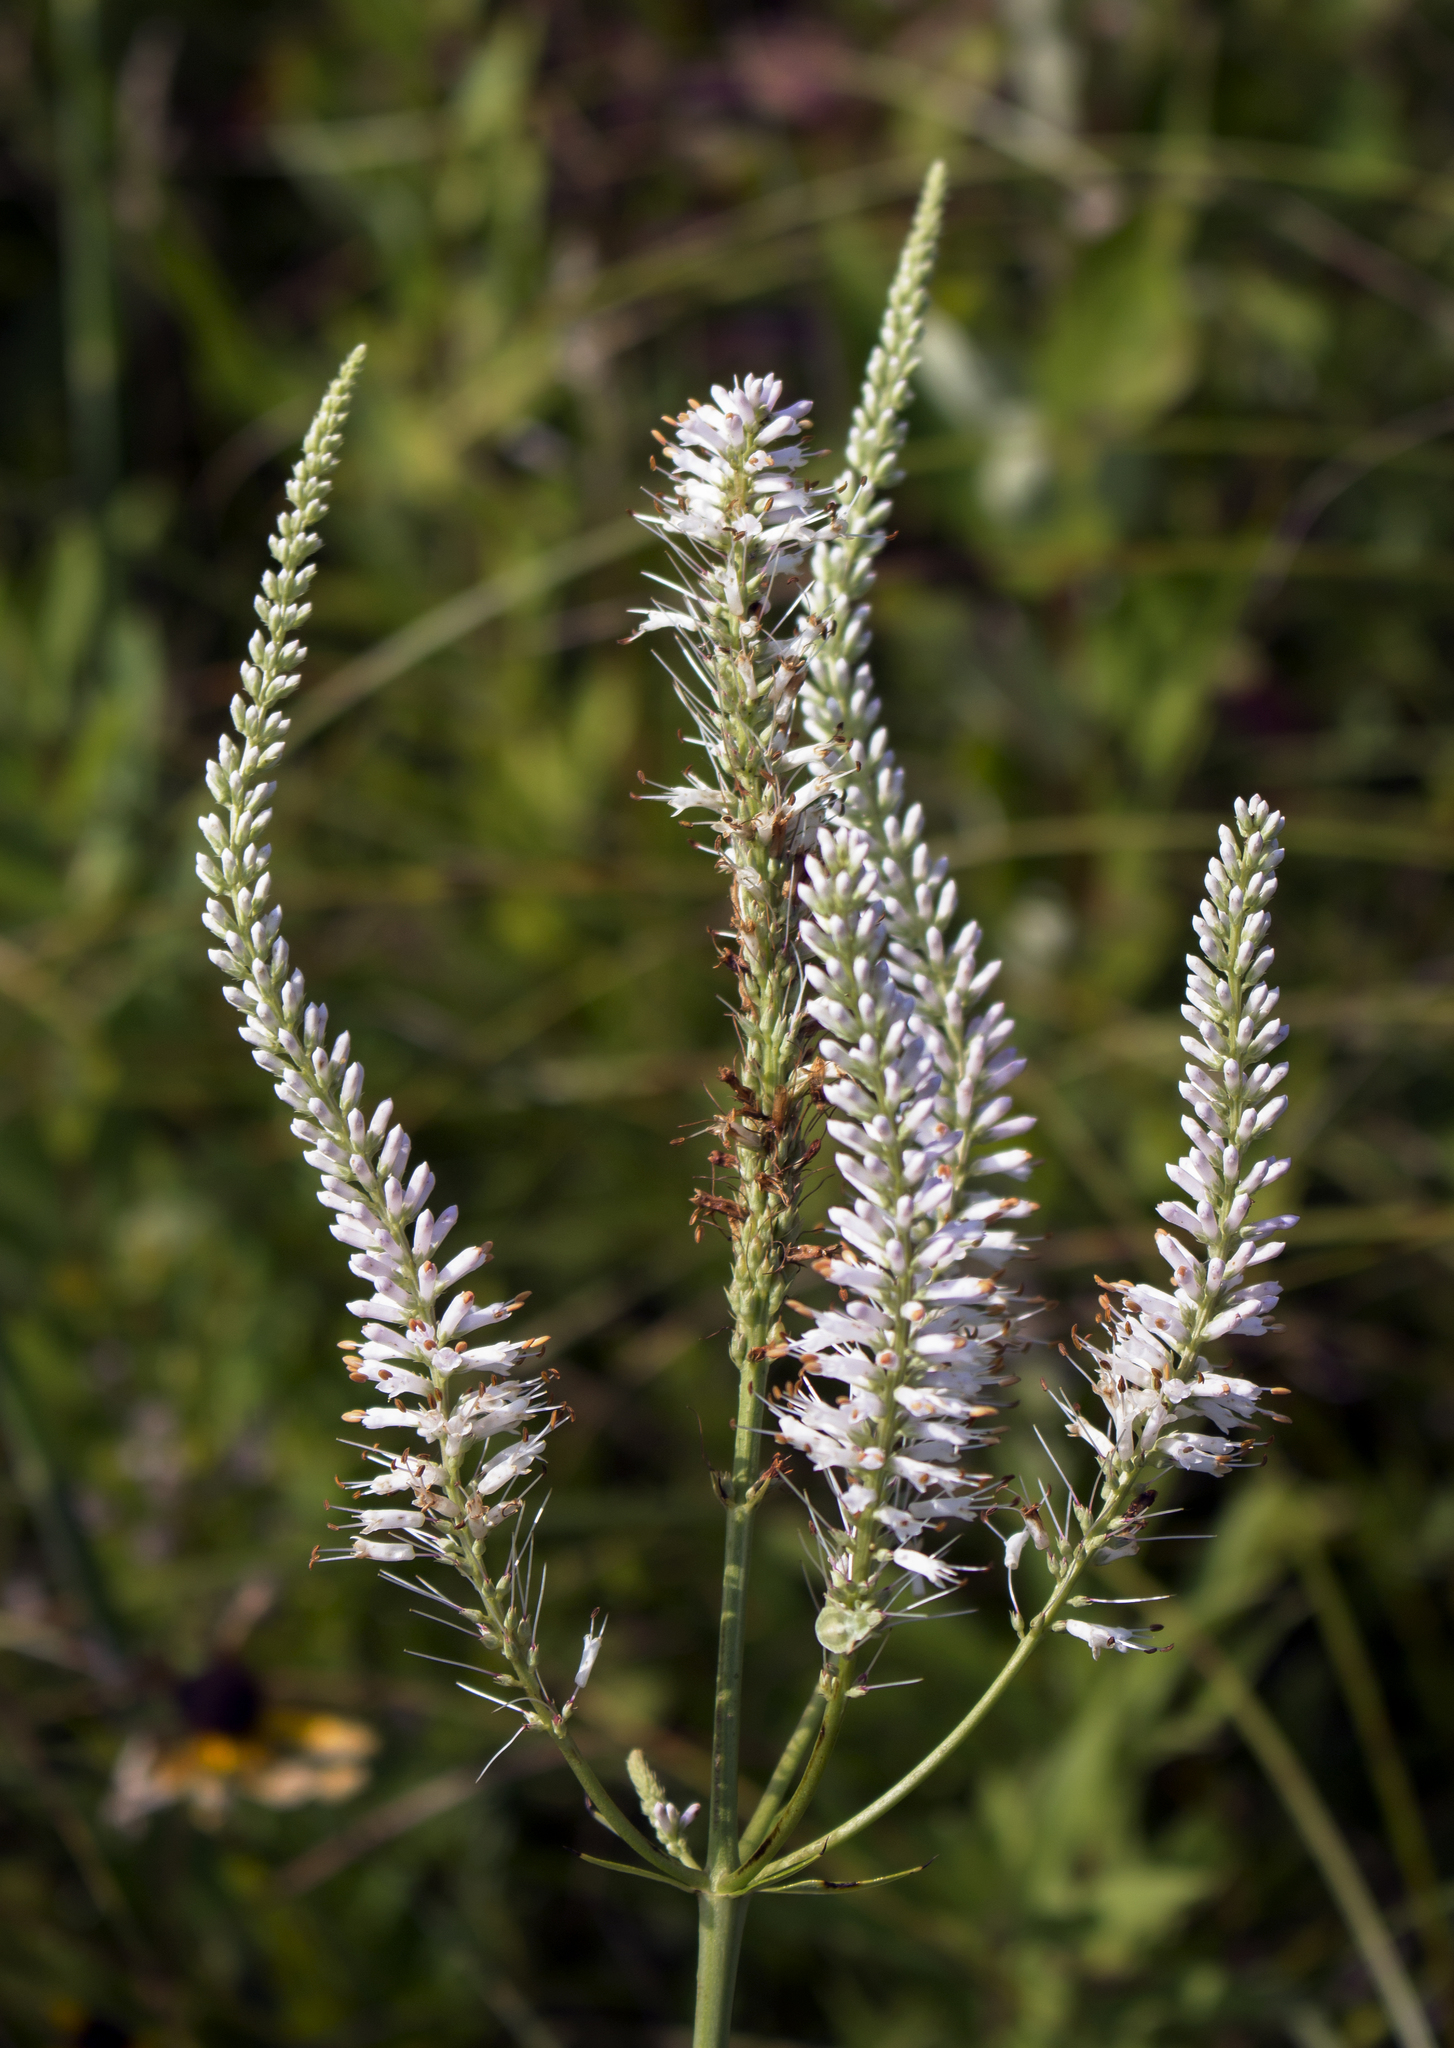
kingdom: Plantae
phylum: Tracheophyta
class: Magnoliopsida
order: Lamiales
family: Plantaginaceae
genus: Veronicastrum
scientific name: Veronicastrum virginicum
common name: Blackroot
